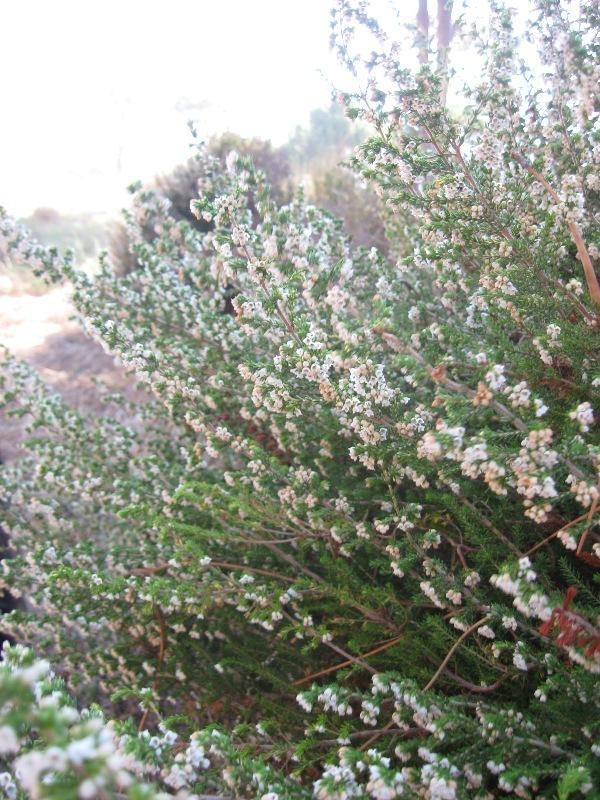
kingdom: Plantae
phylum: Tracheophyta
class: Magnoliopsida
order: Ericales
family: Ericaceae
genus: Erica
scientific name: Erica subdivaricata
